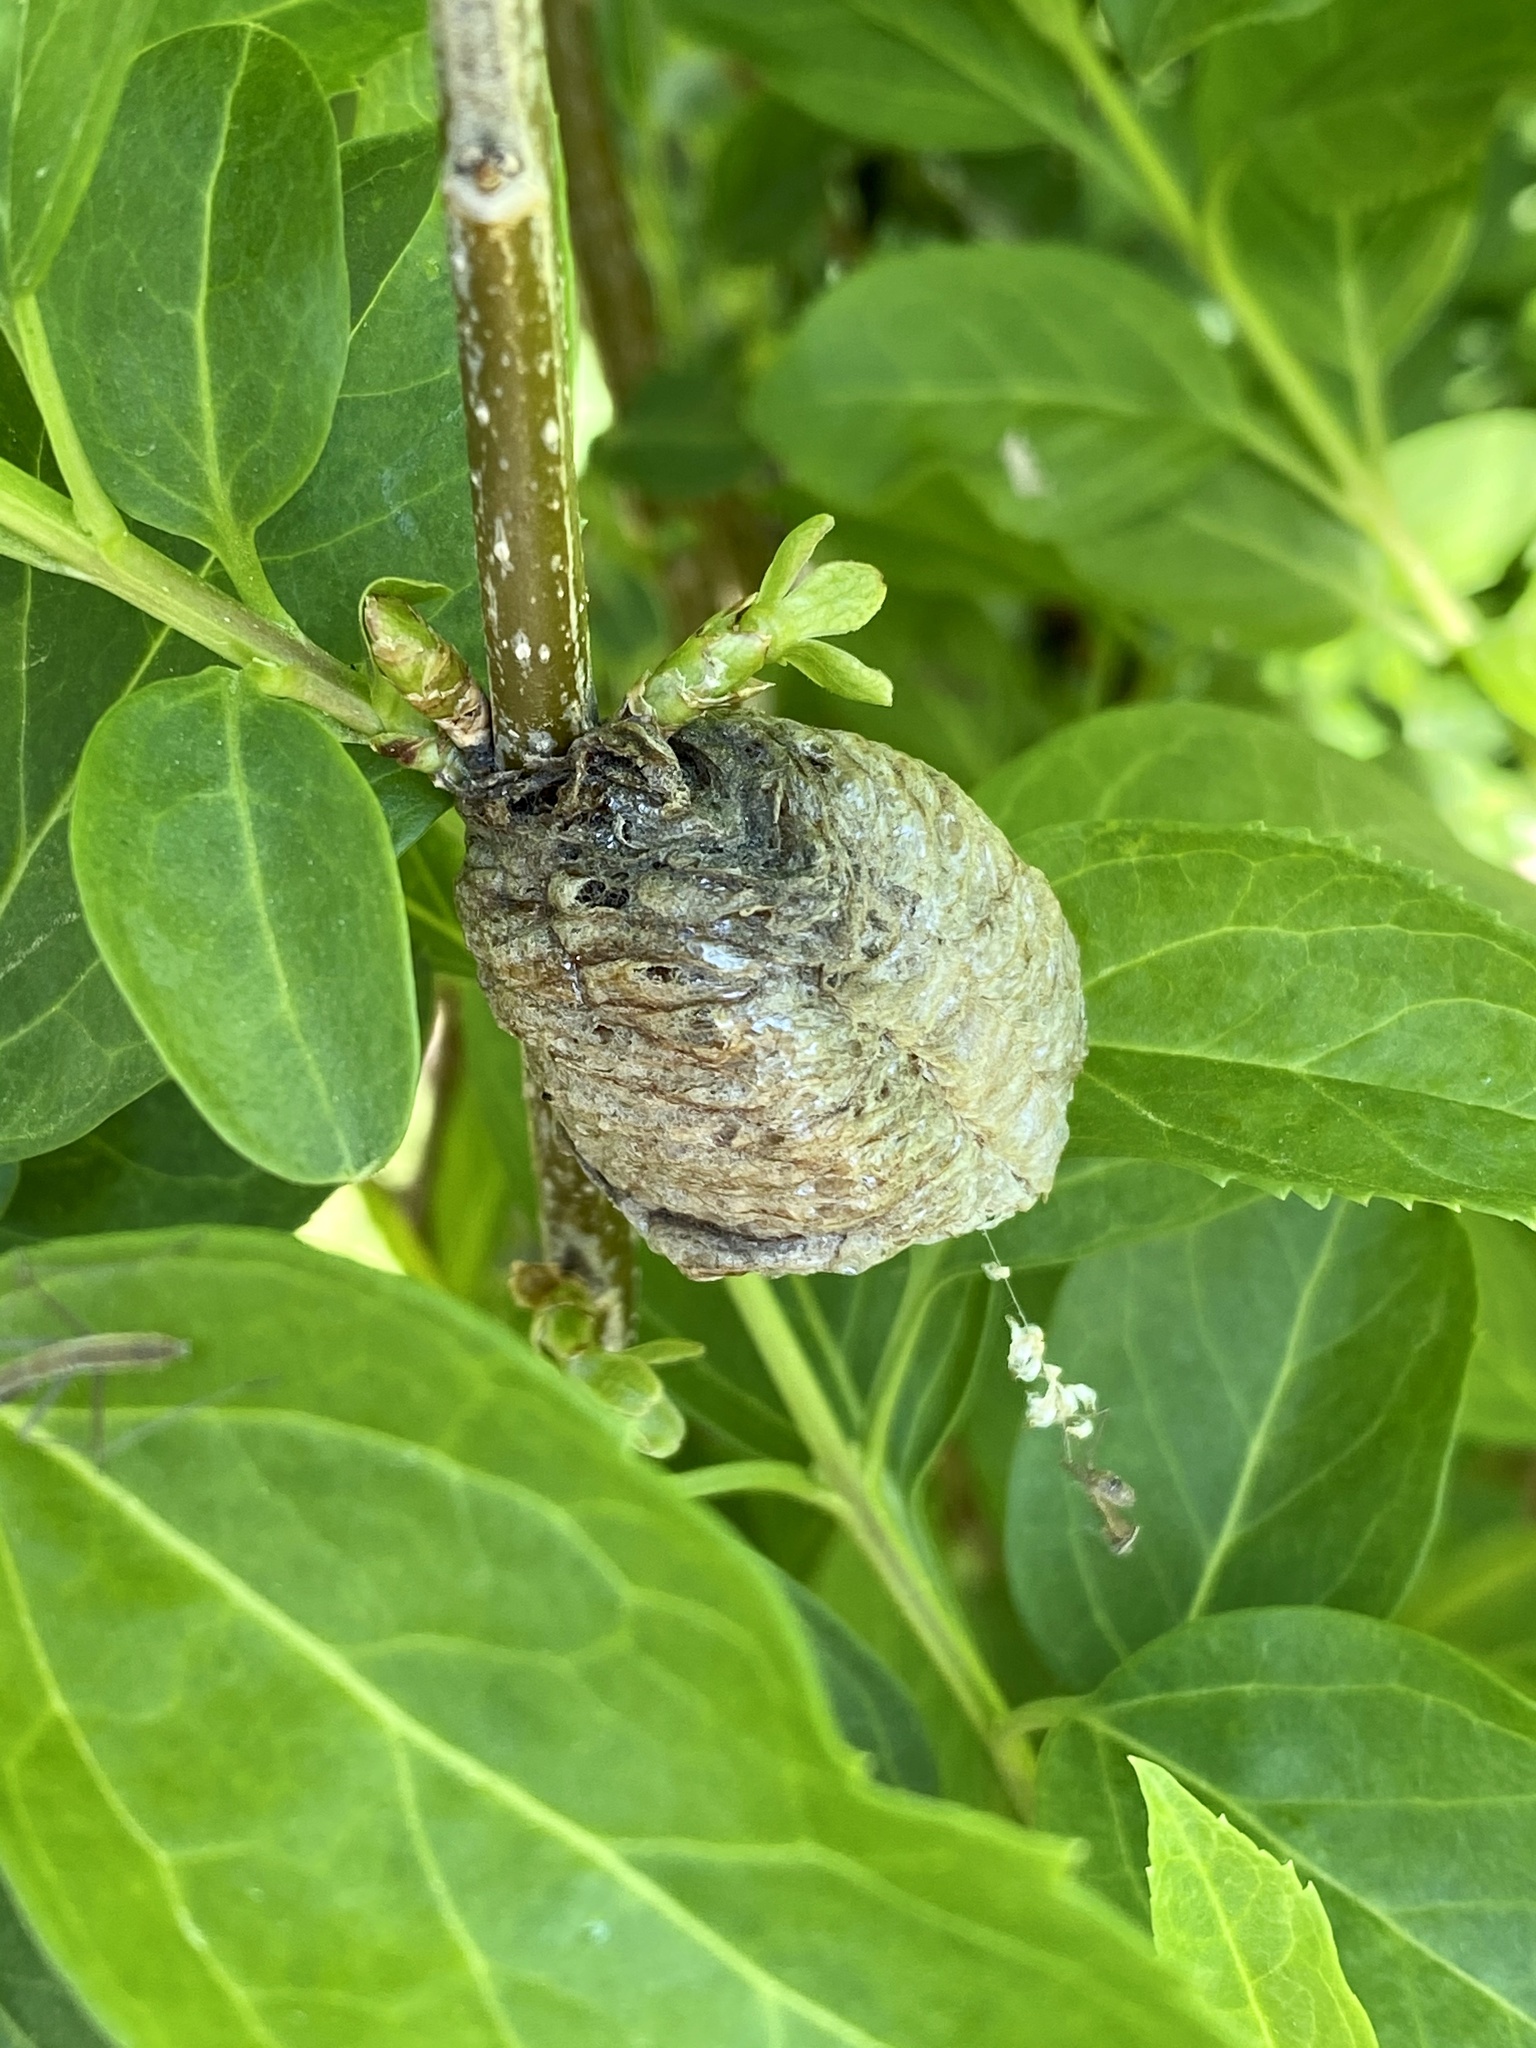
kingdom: Animalia
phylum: Arthropoda
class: Insecta
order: Mantodea
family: Mantidae
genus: Tenodera
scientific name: Tenodera sinensis
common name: Chinese mantis
